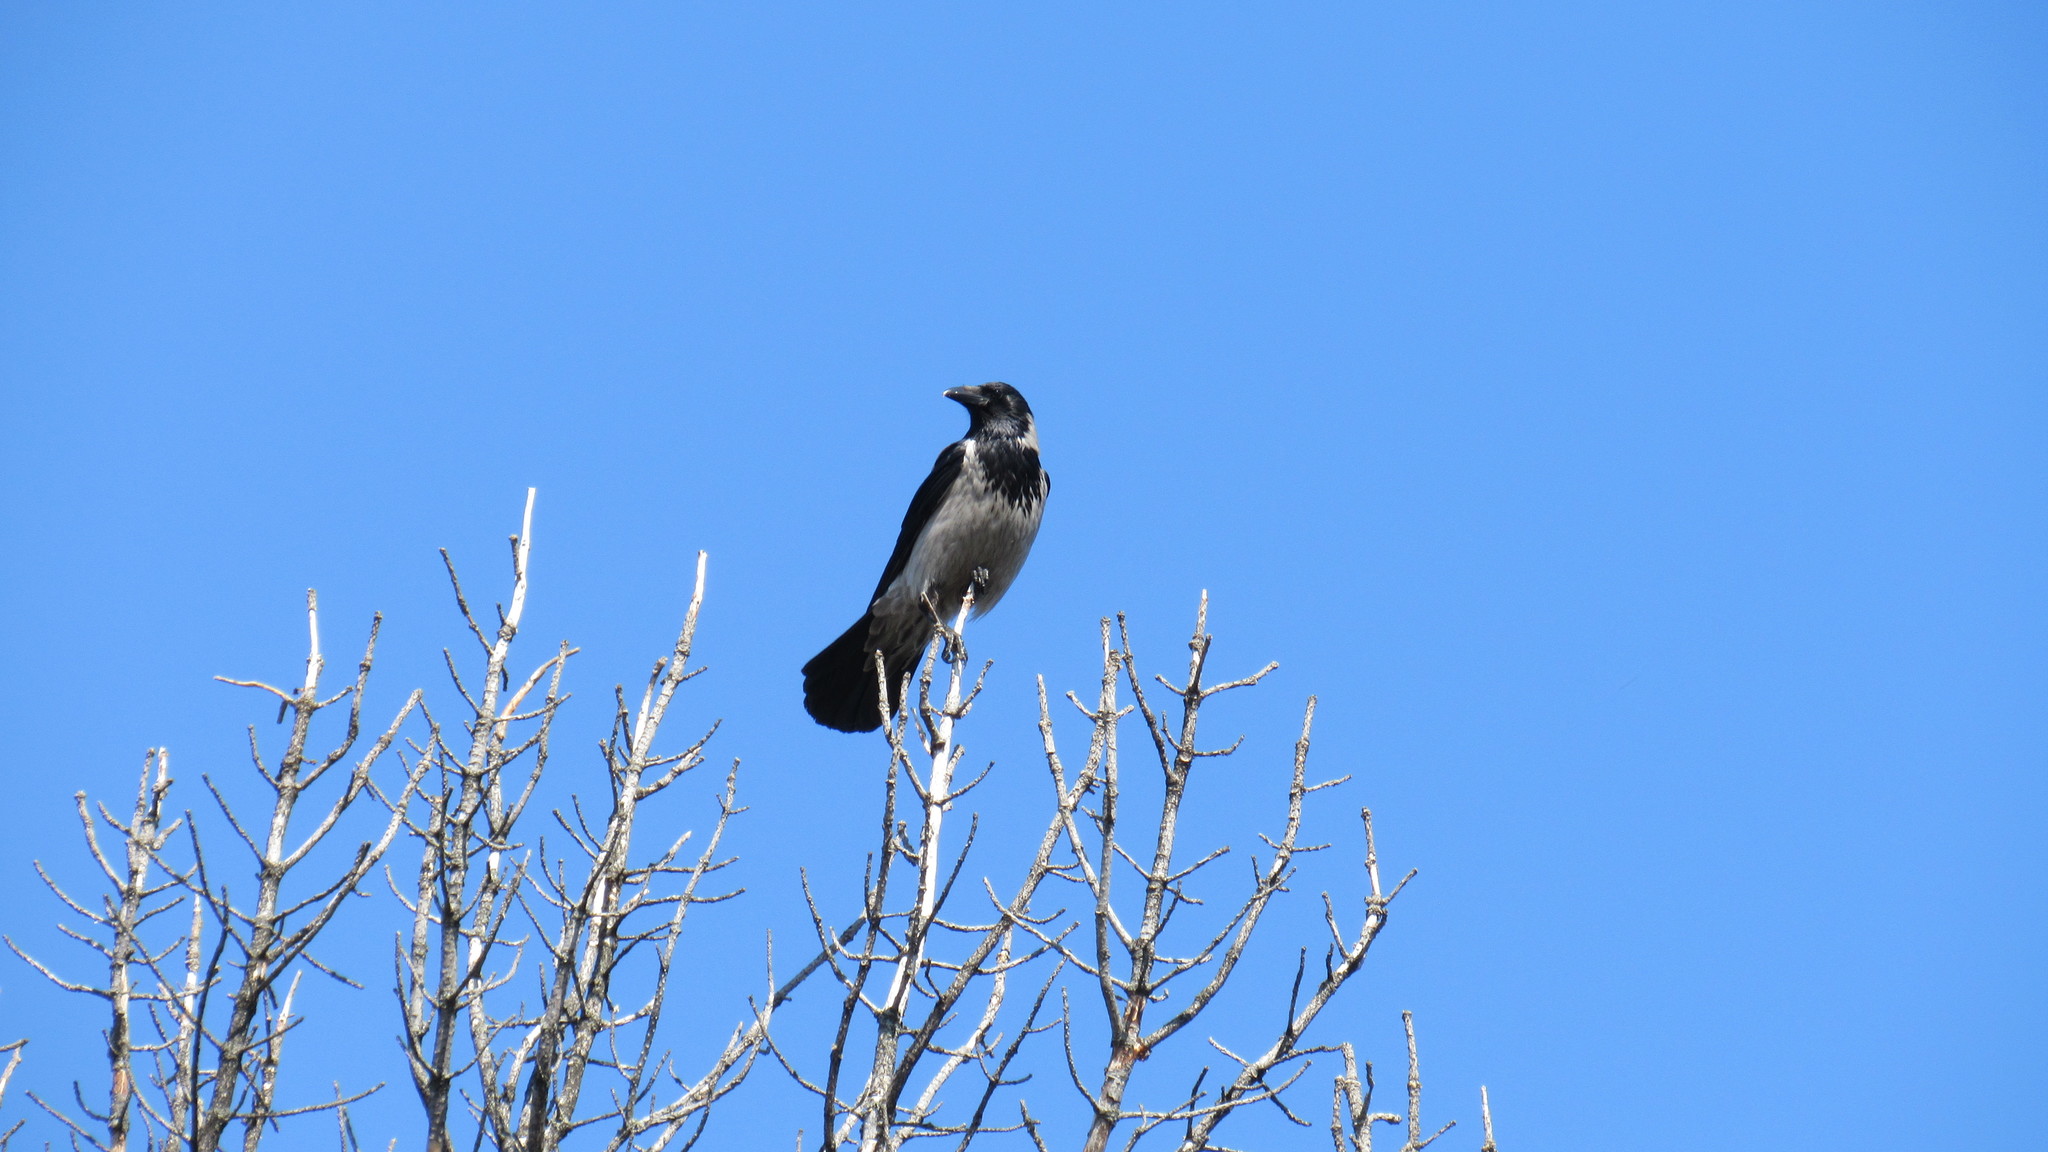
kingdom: Animalia
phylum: Chordata
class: Aves
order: Passeriformes
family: Corvidae
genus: Corvus
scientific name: Corvus cornix
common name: Hooded crow
